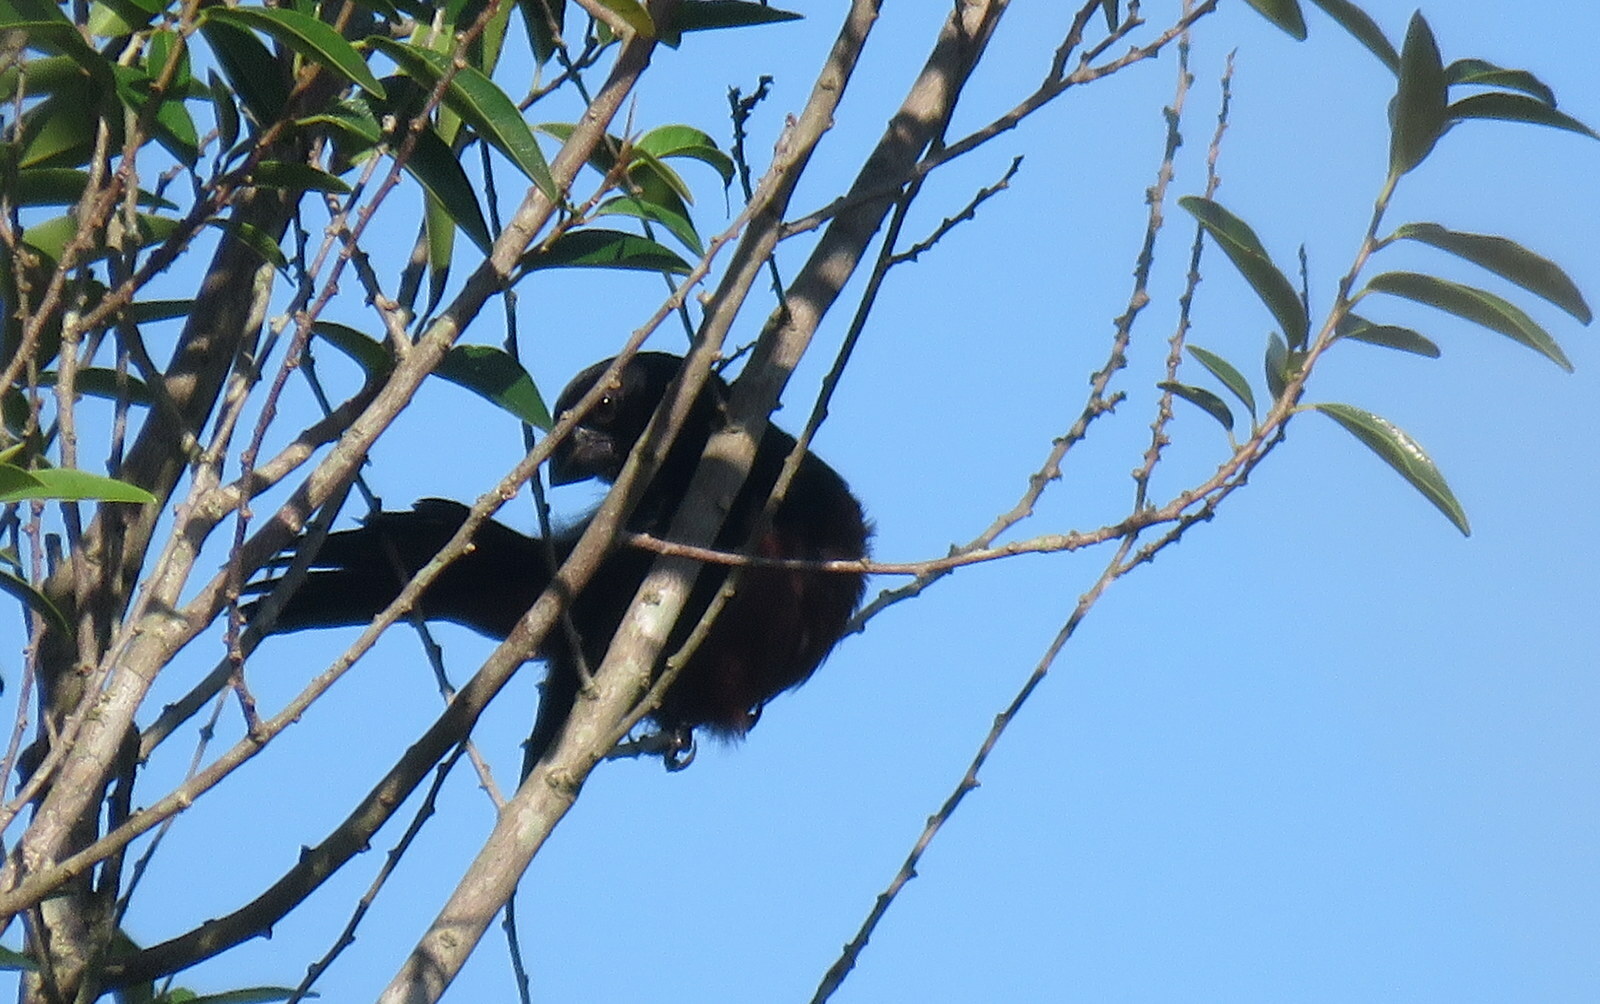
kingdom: Animalia
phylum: Chordata
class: Aves
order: Passeriformes
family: Thraupidae
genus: Sporophila
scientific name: Sporophila angolensis
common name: Chestnut-bellied seed-finch
